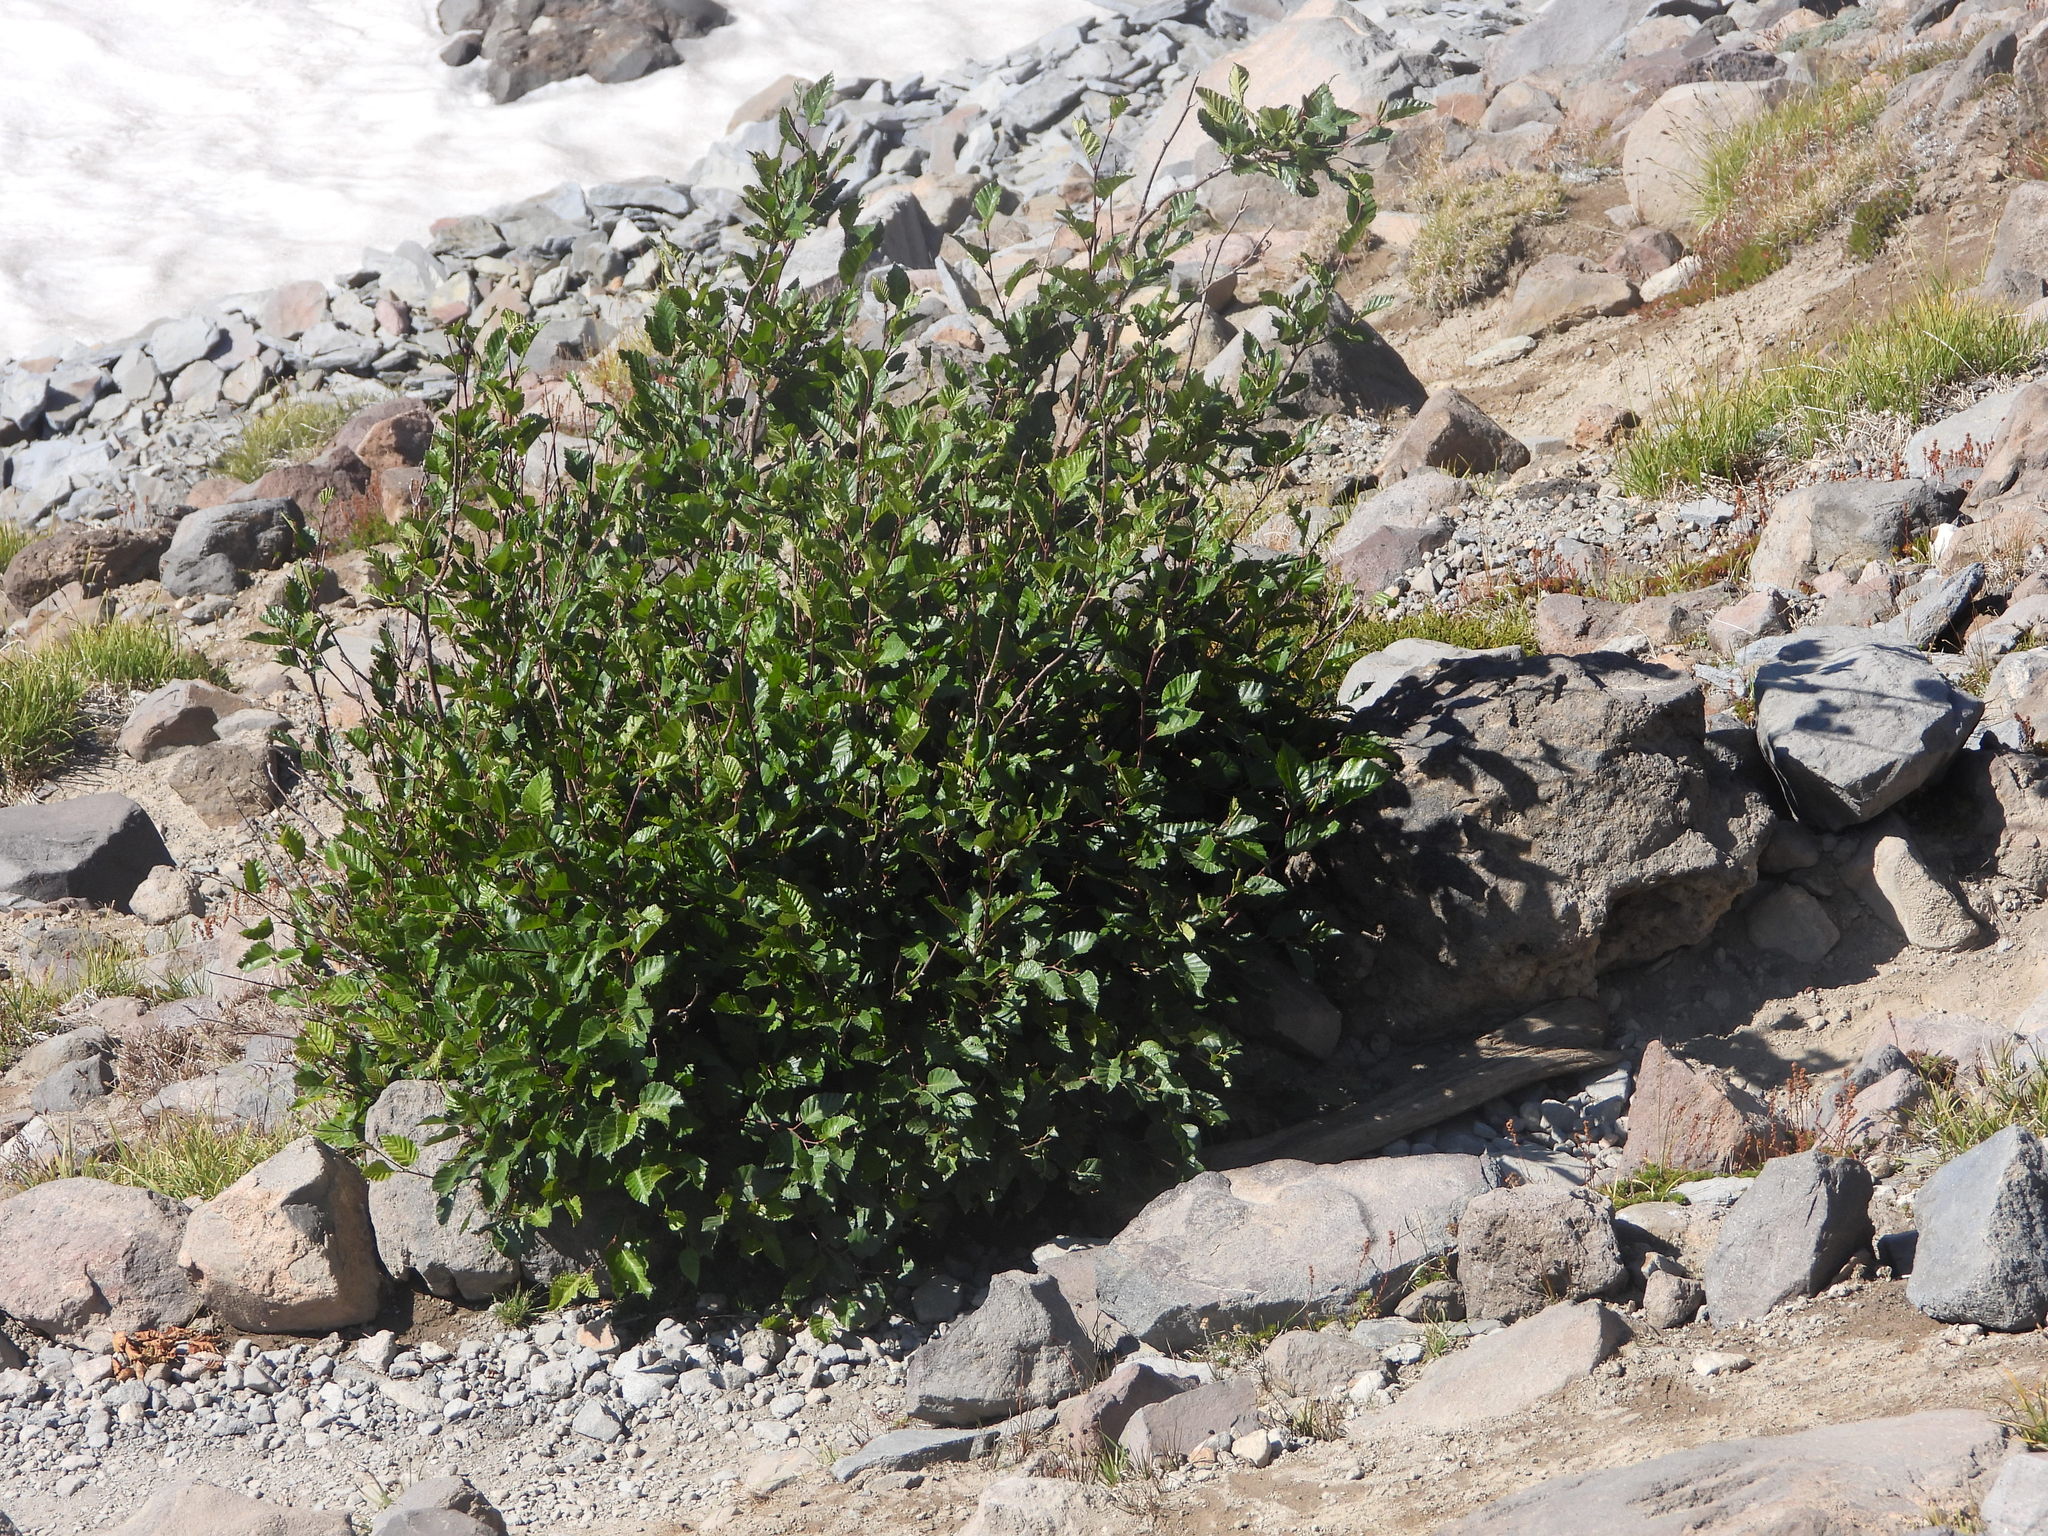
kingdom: Plantae
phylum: Tracheophyta
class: Magnoliopsida
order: Fagales
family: Betulaceae
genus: Alnus
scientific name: Alnus alnobetula
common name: Green alder
